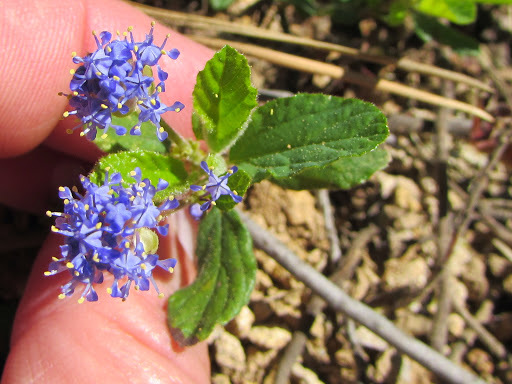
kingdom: Plantae
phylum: Tracheophyta
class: Magnoliopsida
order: Rosales
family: Rhamnaceae
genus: Ceanothus
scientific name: Ceanothus diversifolius
